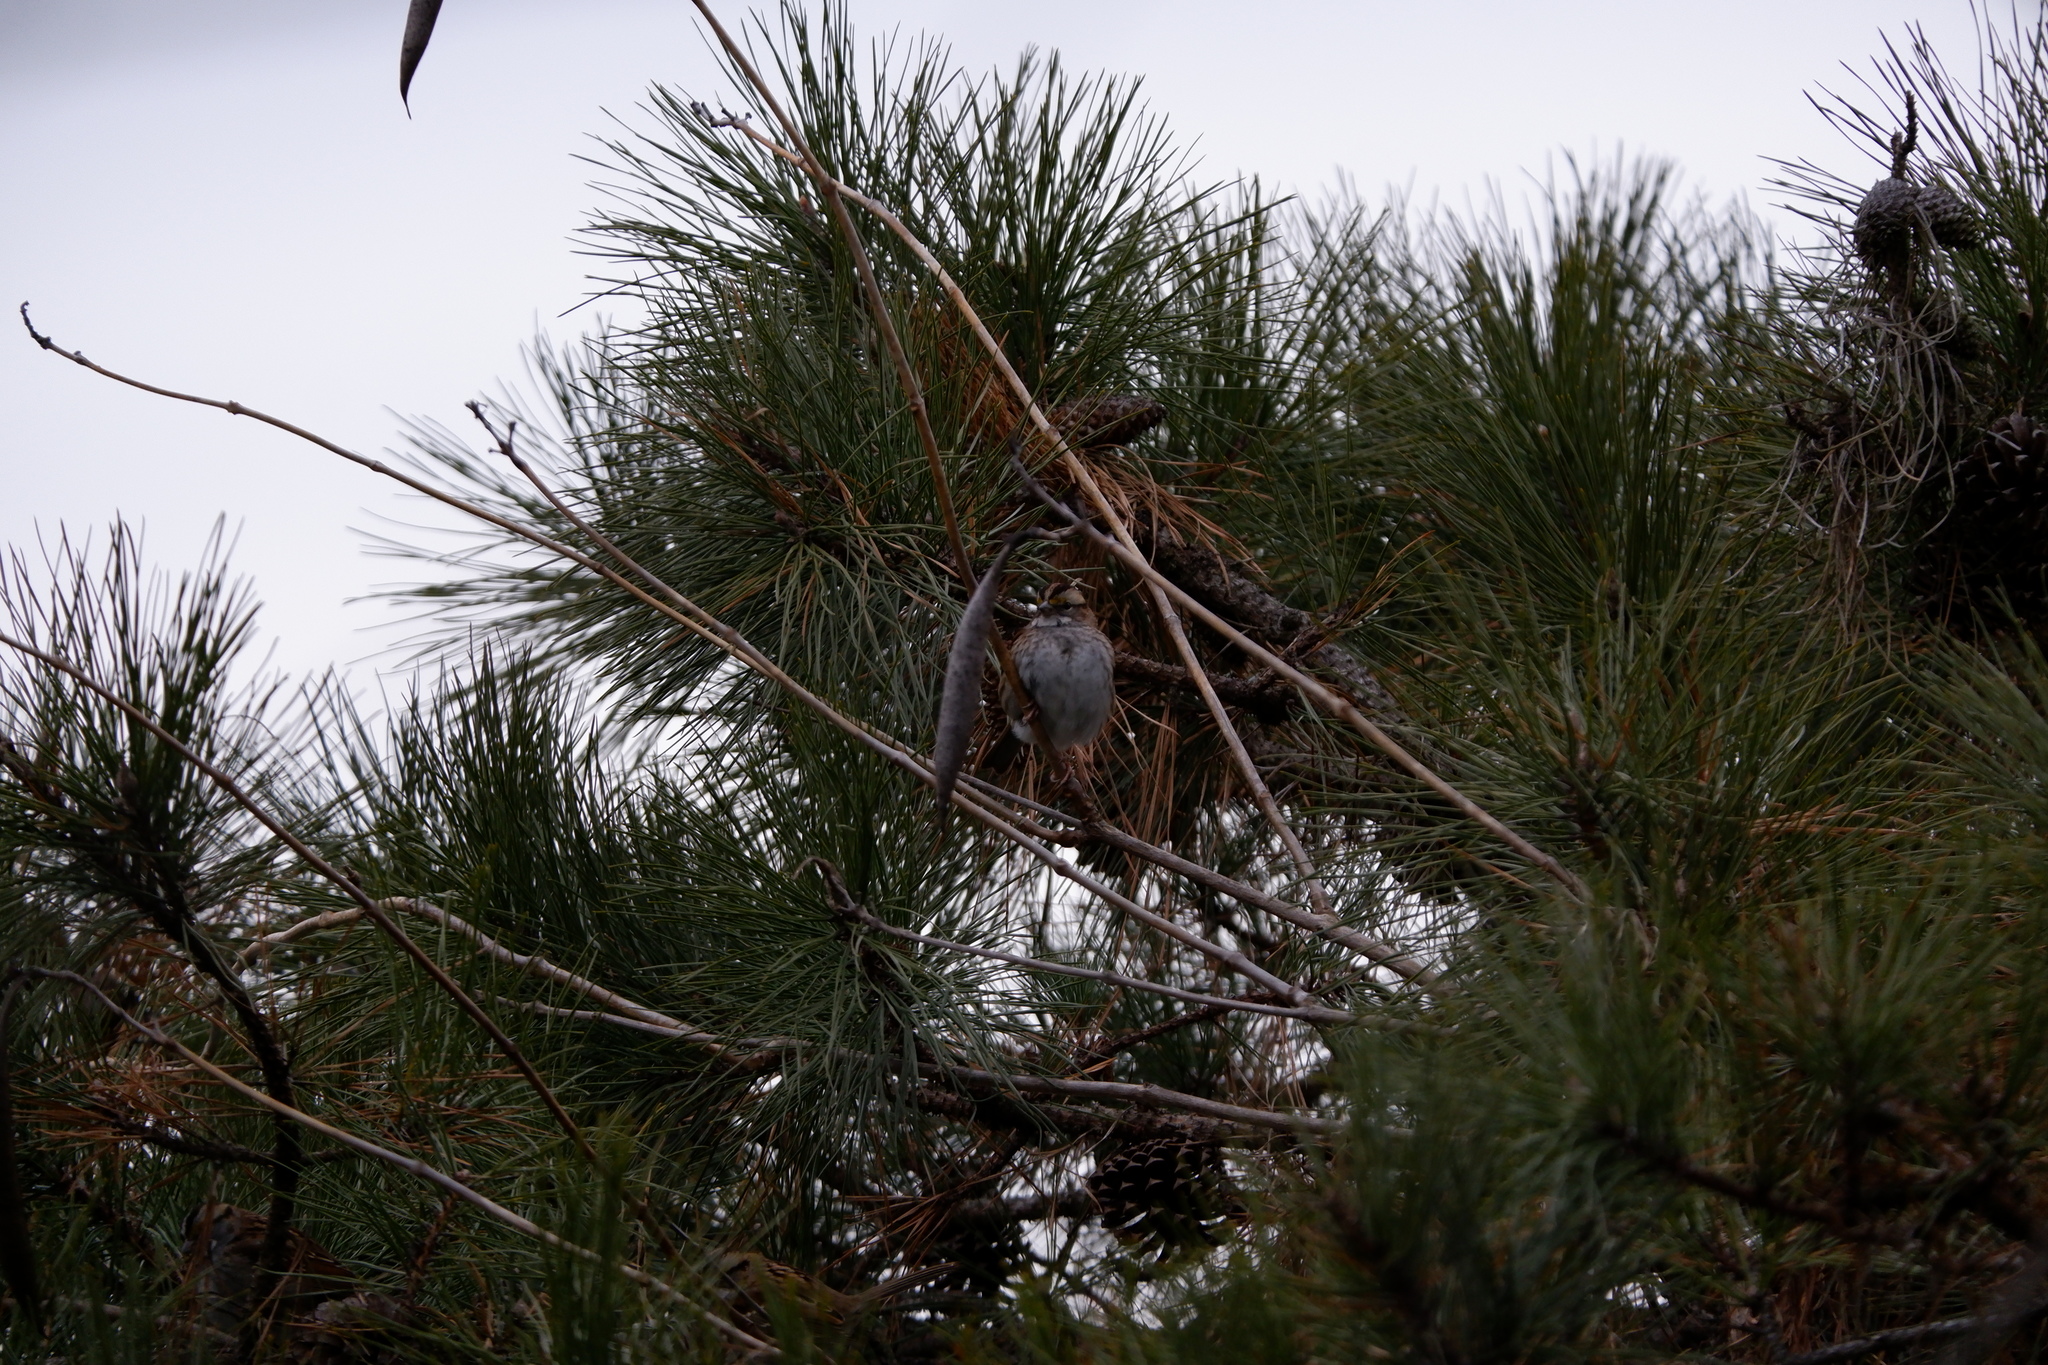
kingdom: Animalia
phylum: Chordata
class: Aves
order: Passeriformes
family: Passerellidae
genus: Zonotrichia
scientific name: Zonotrichia albicollis
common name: White-throated sparrow
